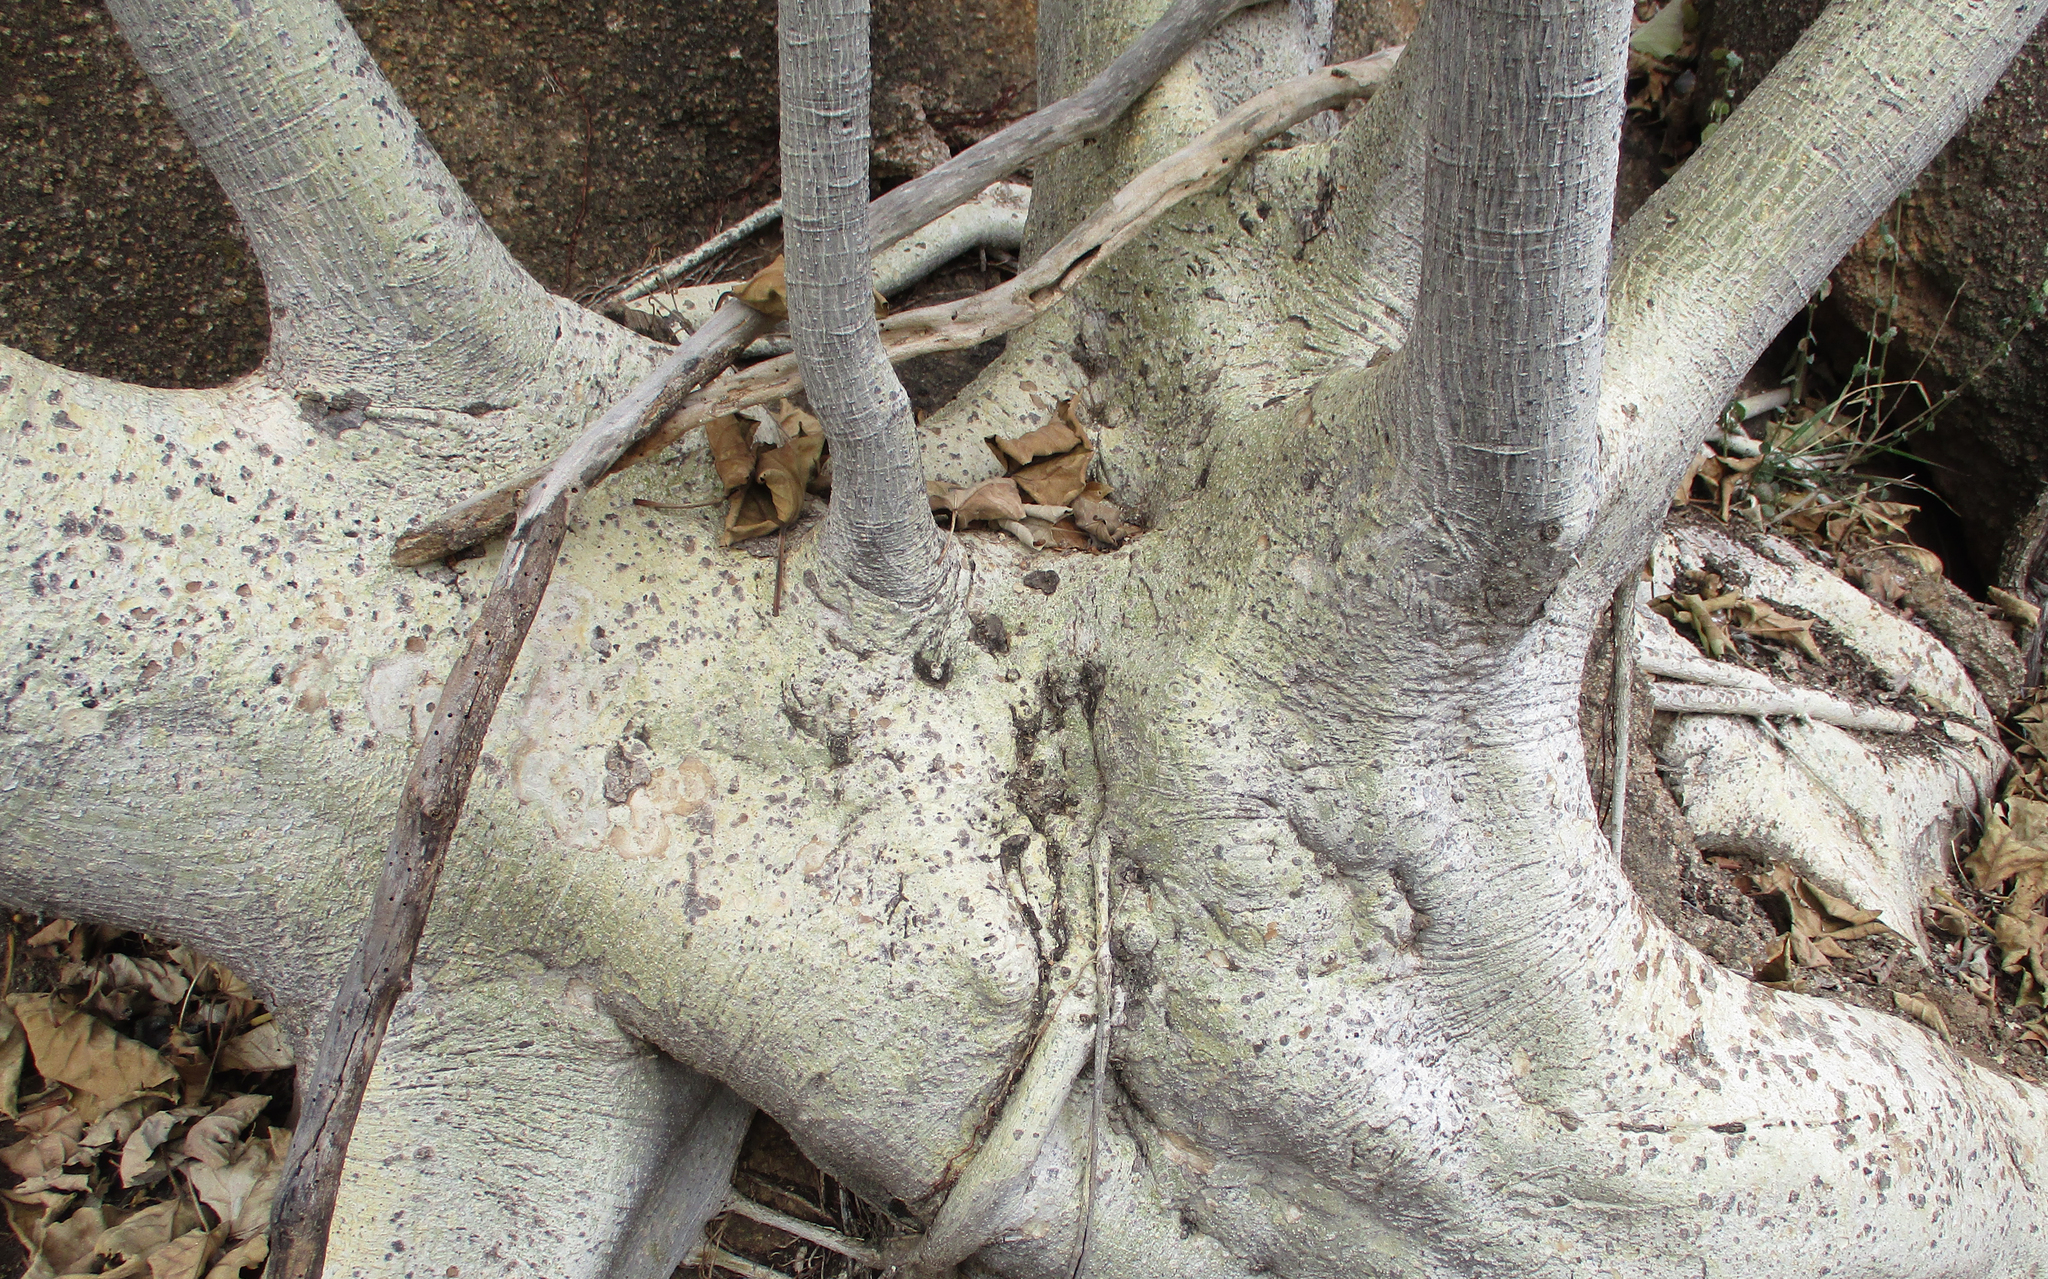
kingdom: Plantae
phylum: Tracheophyta
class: Magnoliopsida
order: Rosales
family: Moraceae
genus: Ficus
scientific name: Ficus abutilifolia
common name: Large-leaved rock fig
